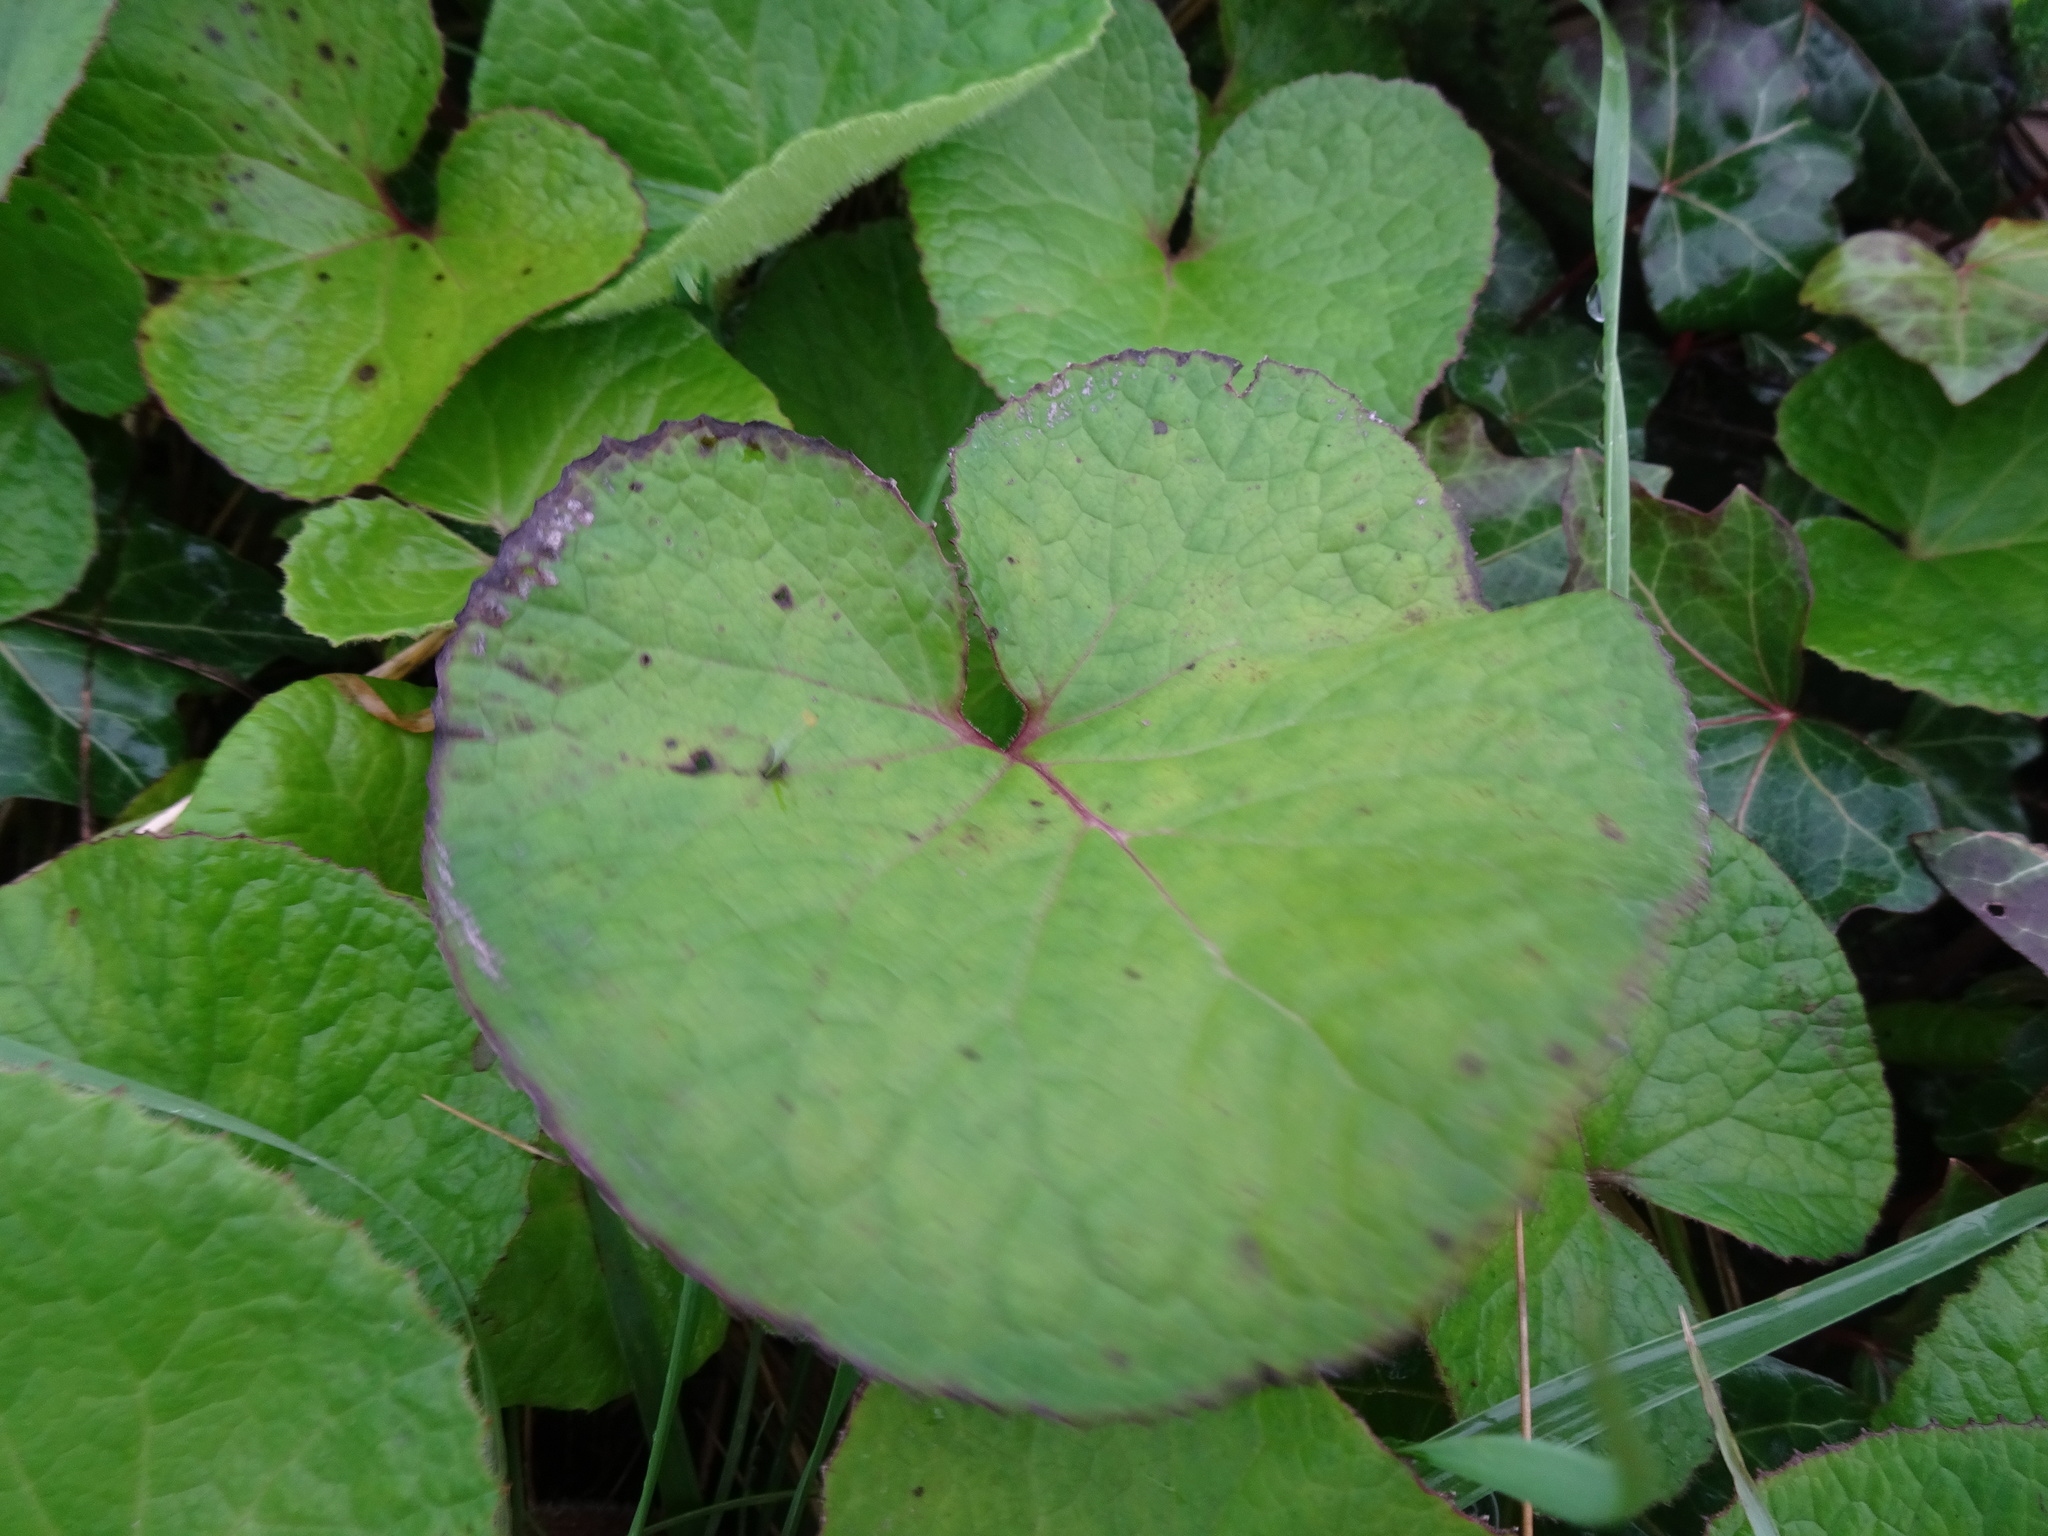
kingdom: Plantae
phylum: Tracheophyta
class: Magnoliopsida
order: Asterales
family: Asteraceae
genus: Petasites
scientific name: Petasites pyrenaicus
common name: Winter heliotrope
